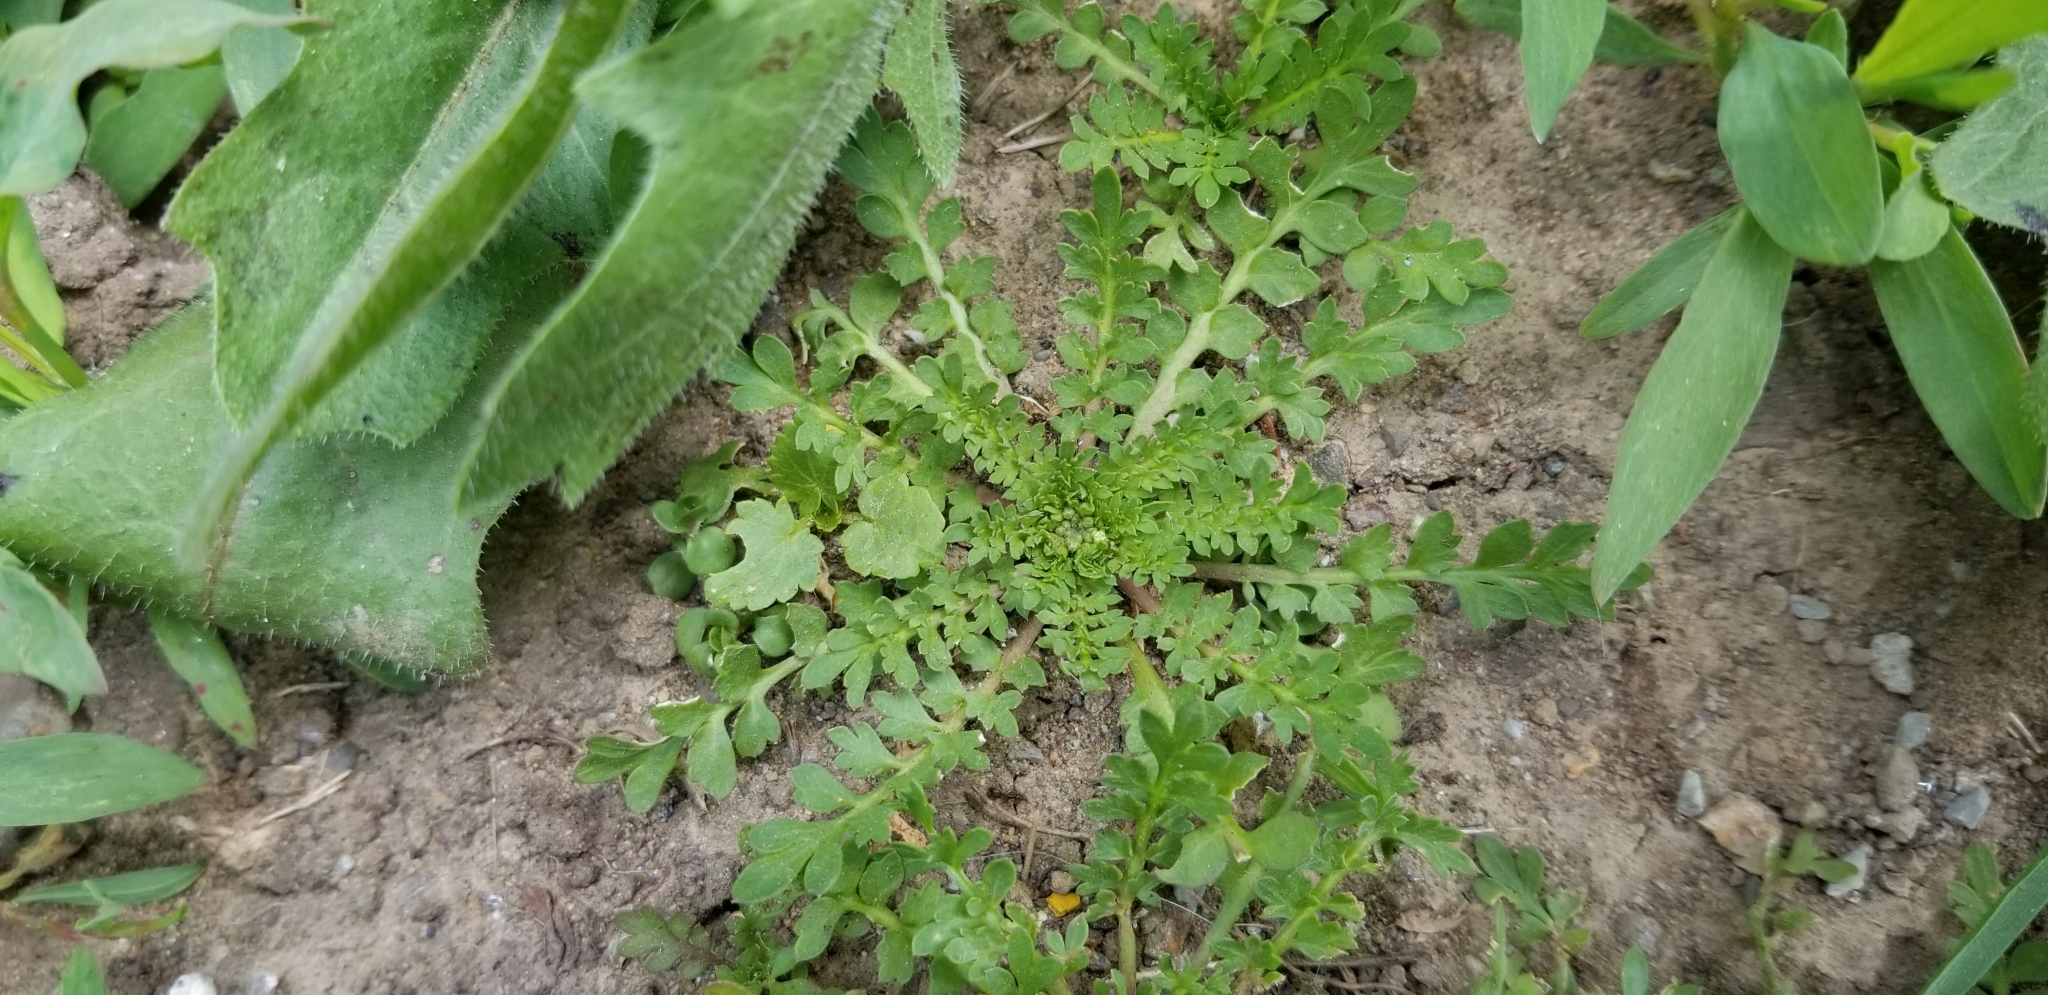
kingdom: Plantae
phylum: Tracheophyta
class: Magnoliopsida
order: Brassicales
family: Brassicaceae
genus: Lepidium
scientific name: Lepidium didymum
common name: Lesser swinecress
